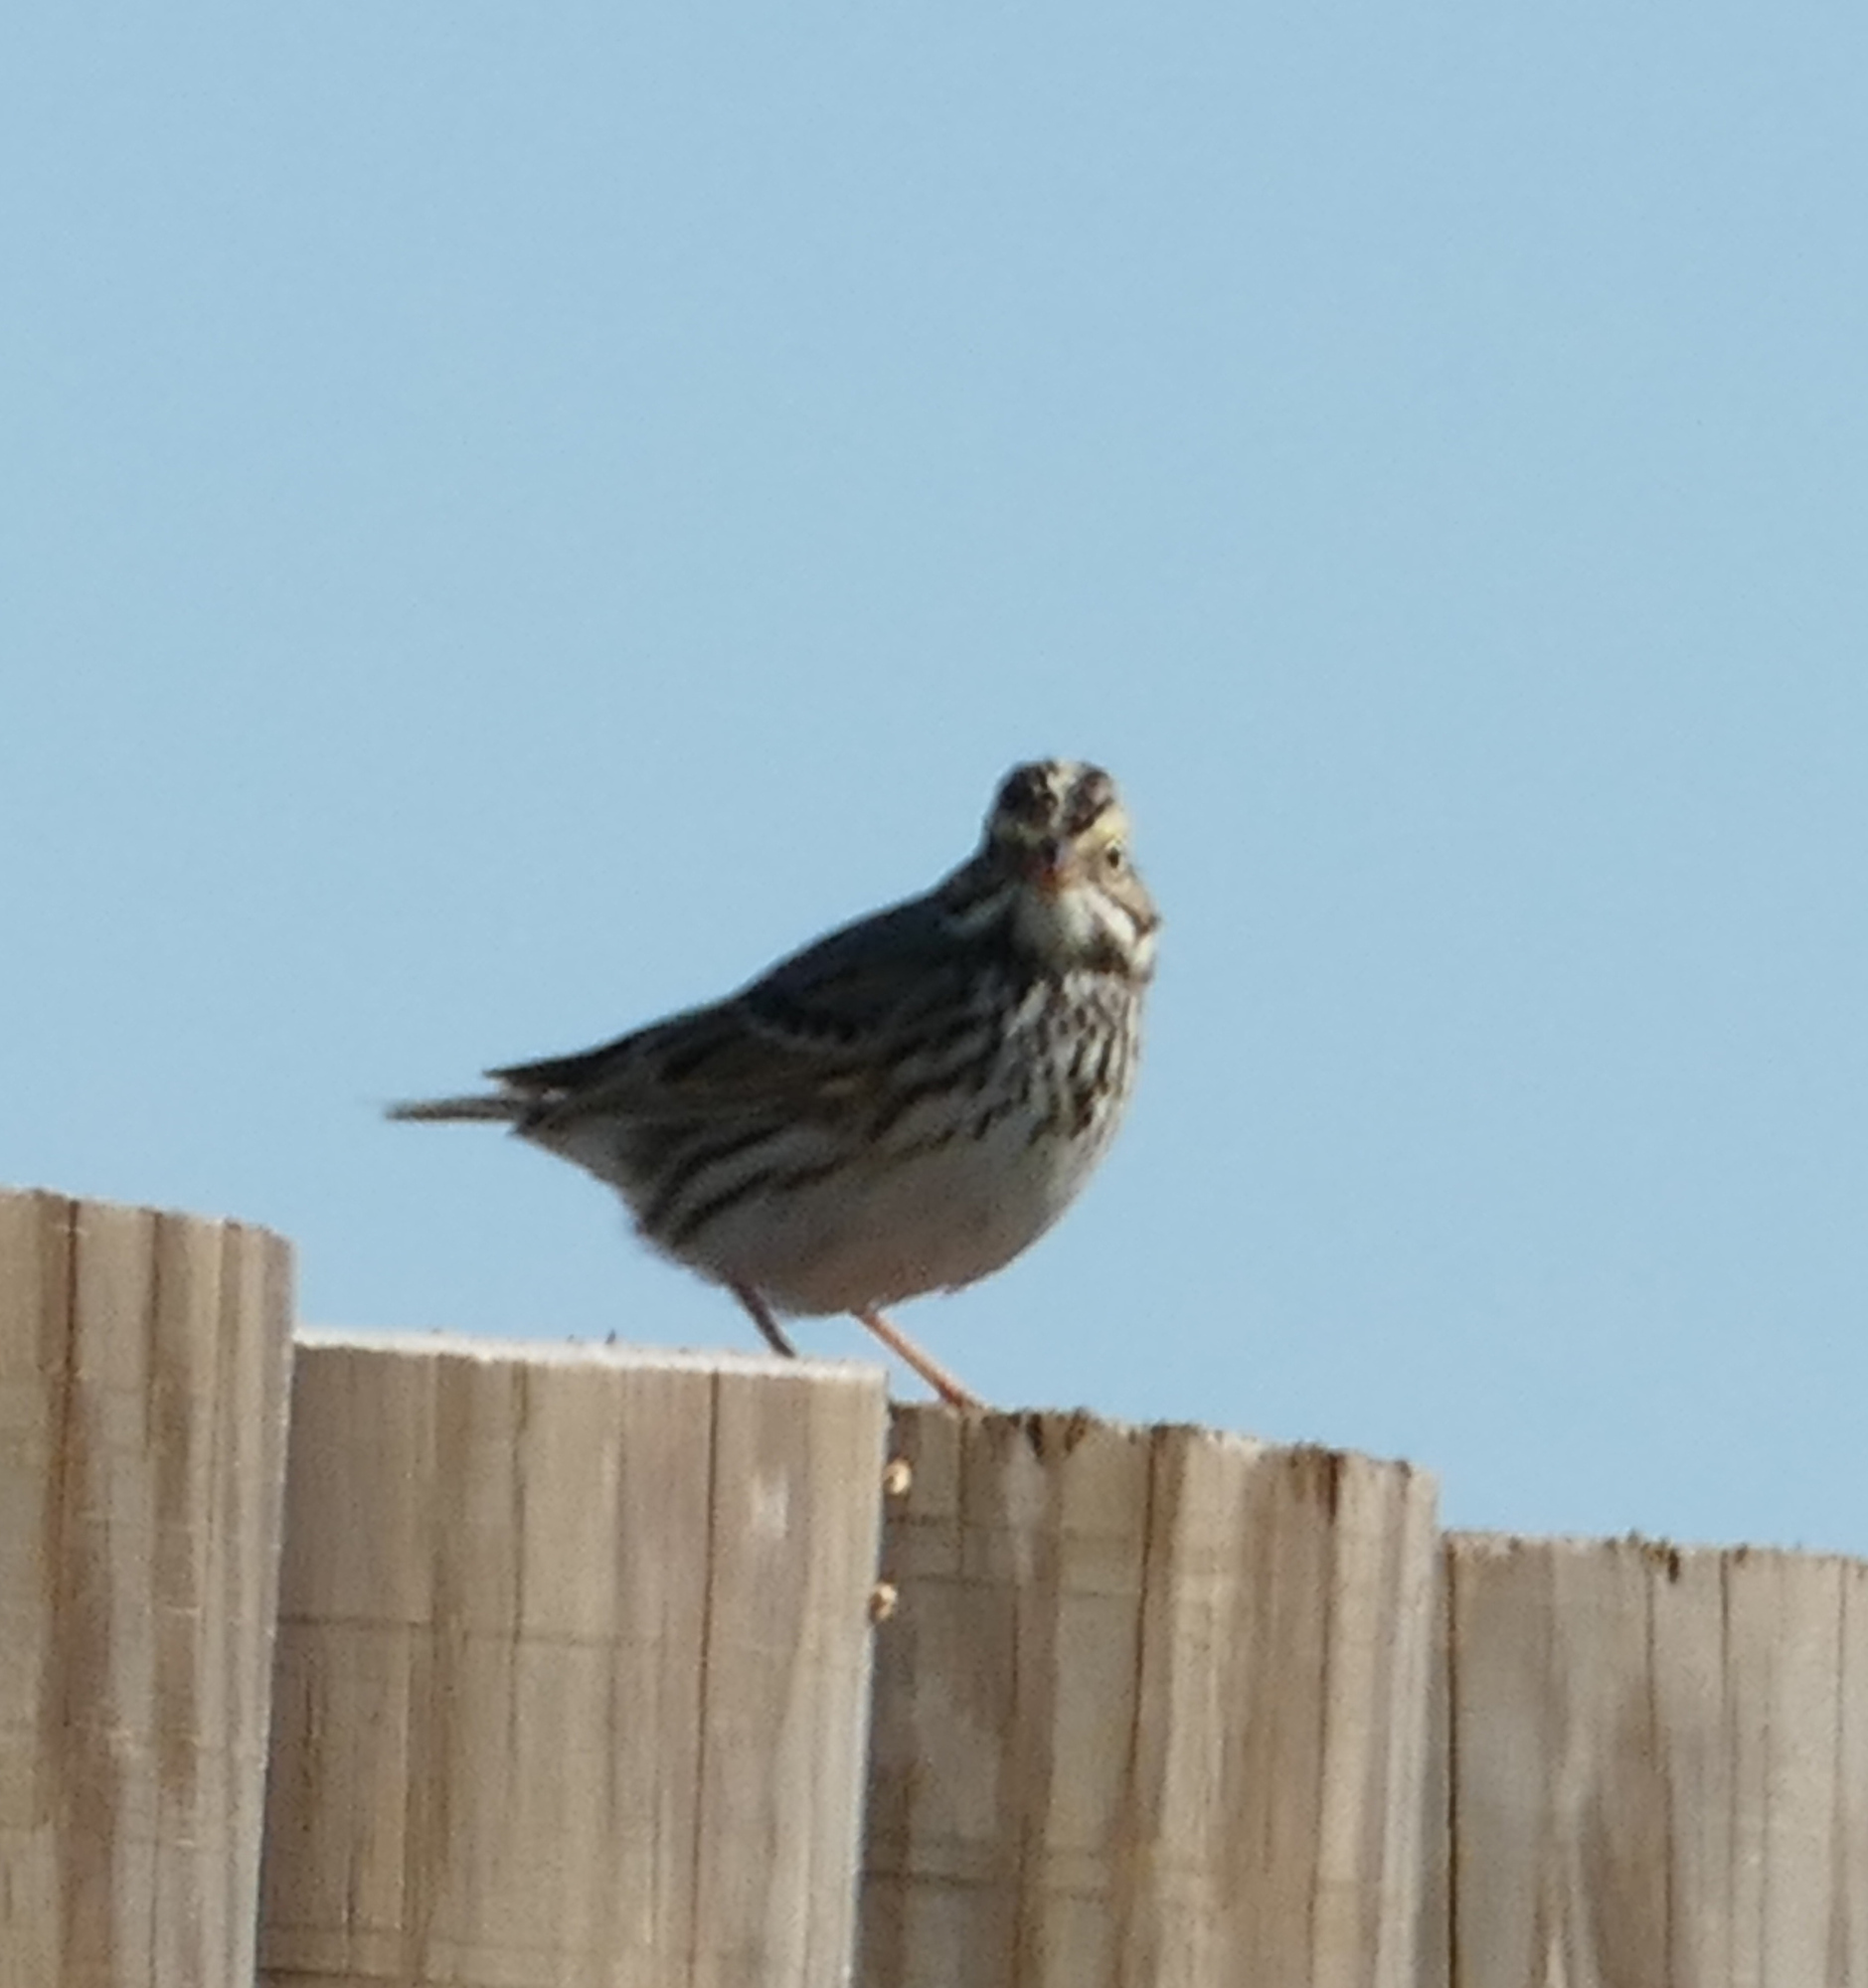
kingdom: Animalia
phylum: Chordata
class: Aves
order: Passeriformes
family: Passerellidae
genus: Passerculus
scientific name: Passerculus sandwichensis
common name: Savannah sparrow
